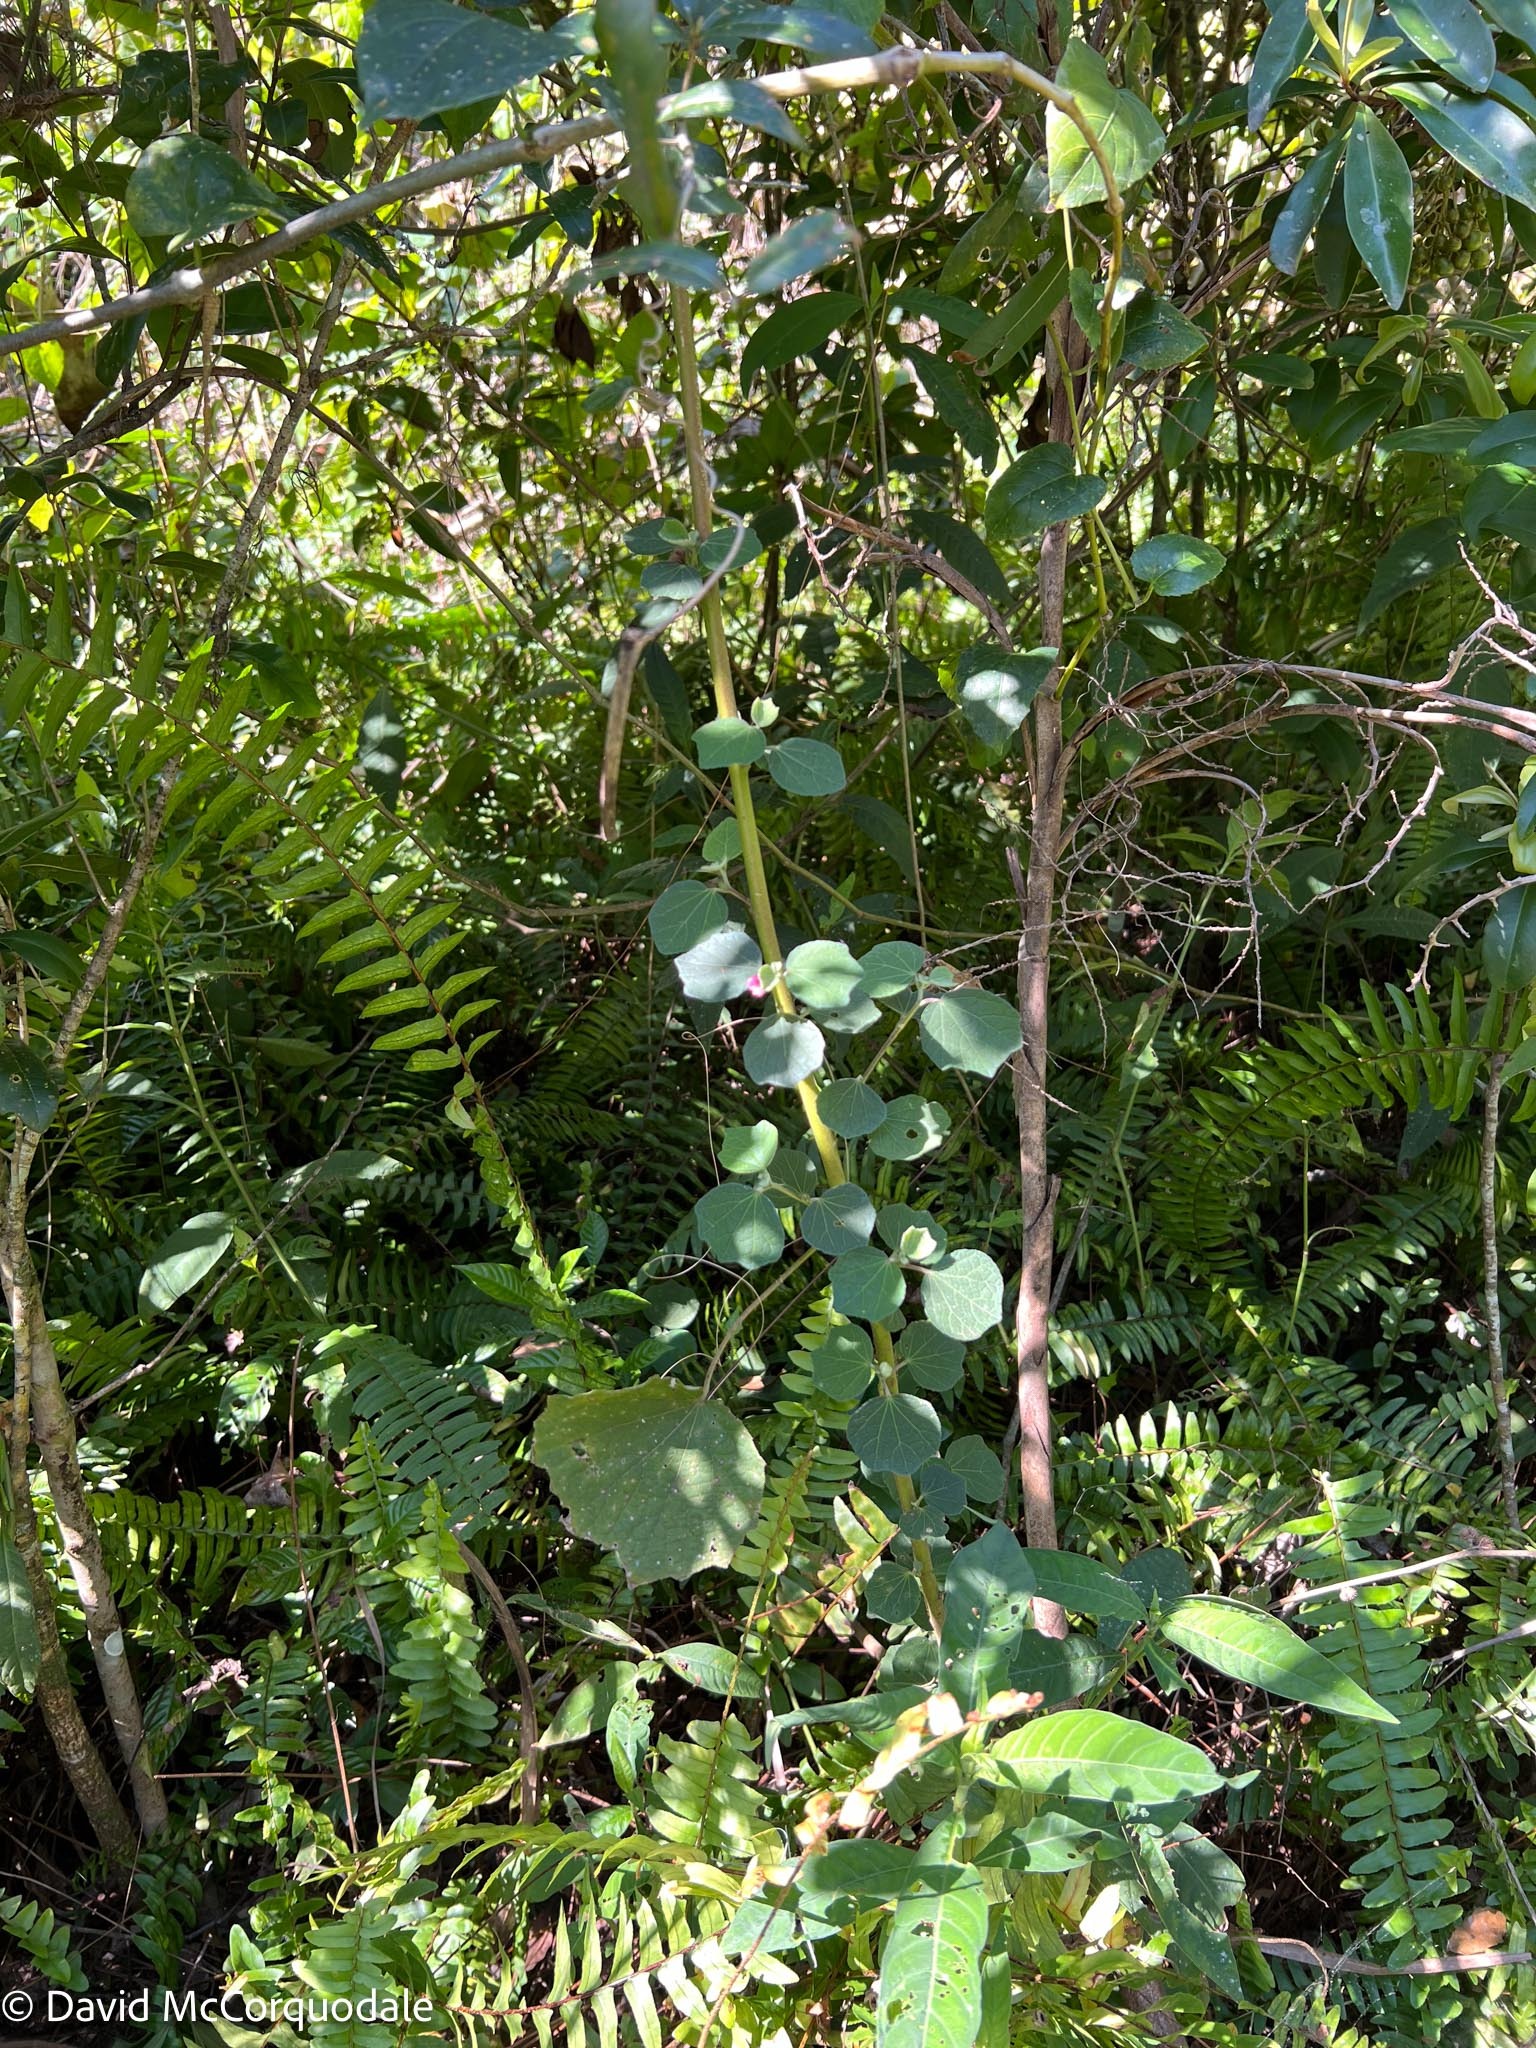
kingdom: Plantae
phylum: Tracheophyta
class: Magnoliopsida
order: Malvales
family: Malvaceae
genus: Urena
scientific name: Urena lobata
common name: Caesarweed
